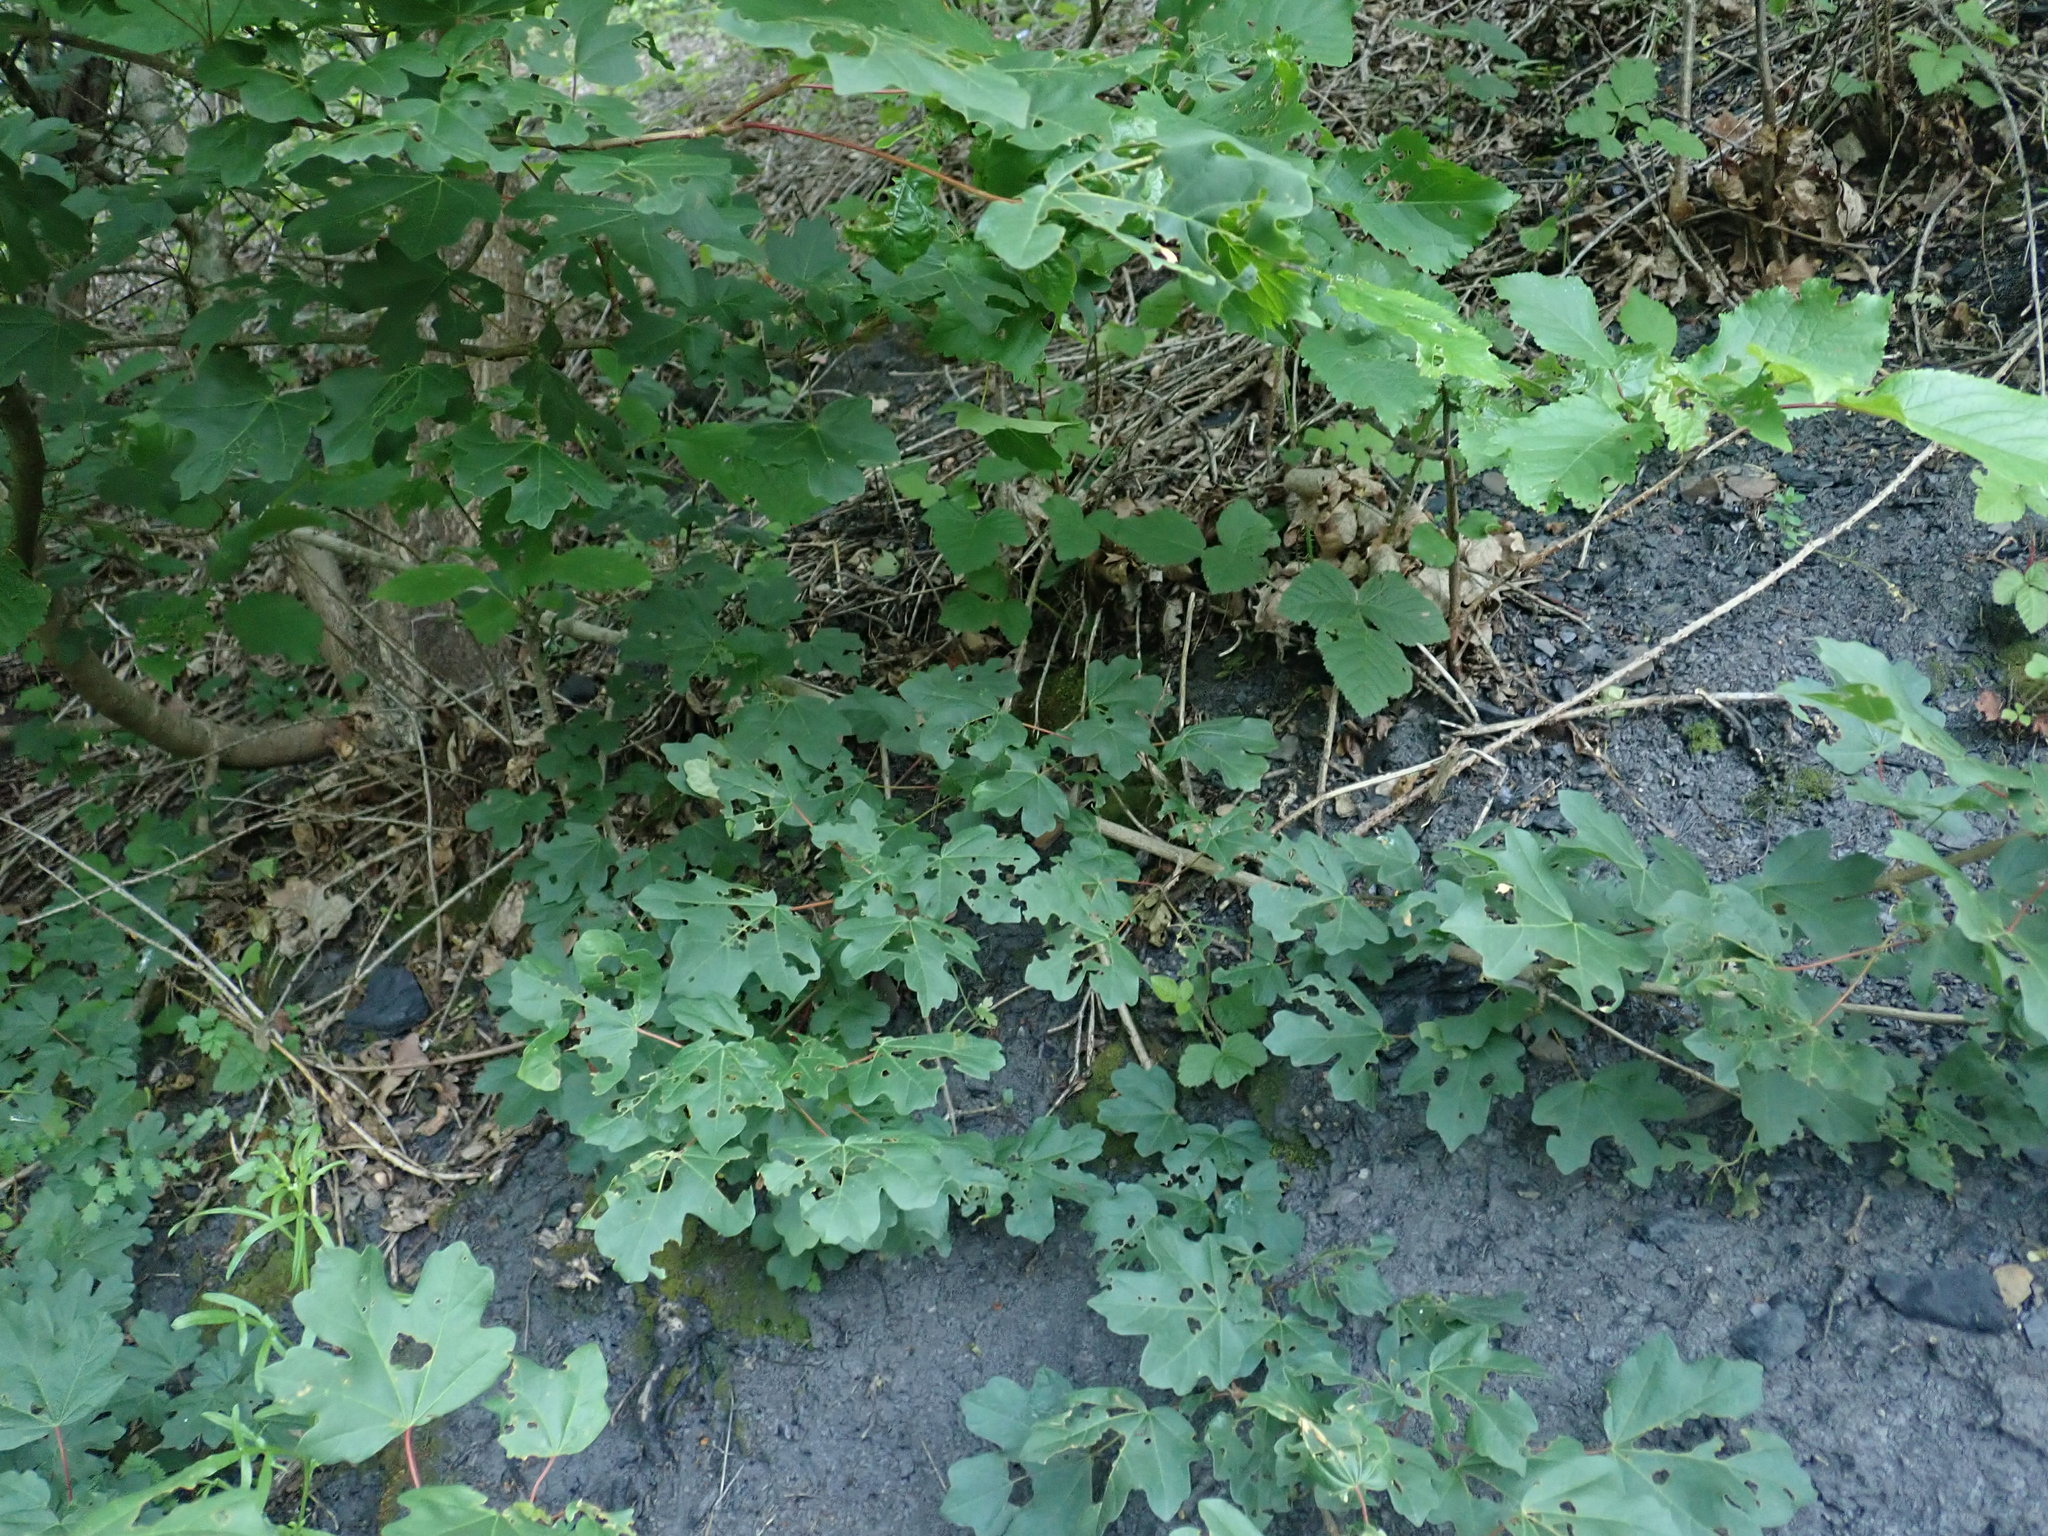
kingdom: Plantae
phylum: Tracheophyta
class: Magnoliopsida
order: Sapindales
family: Sapindaceae
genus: Acer
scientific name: Acer campestre
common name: Field maple
